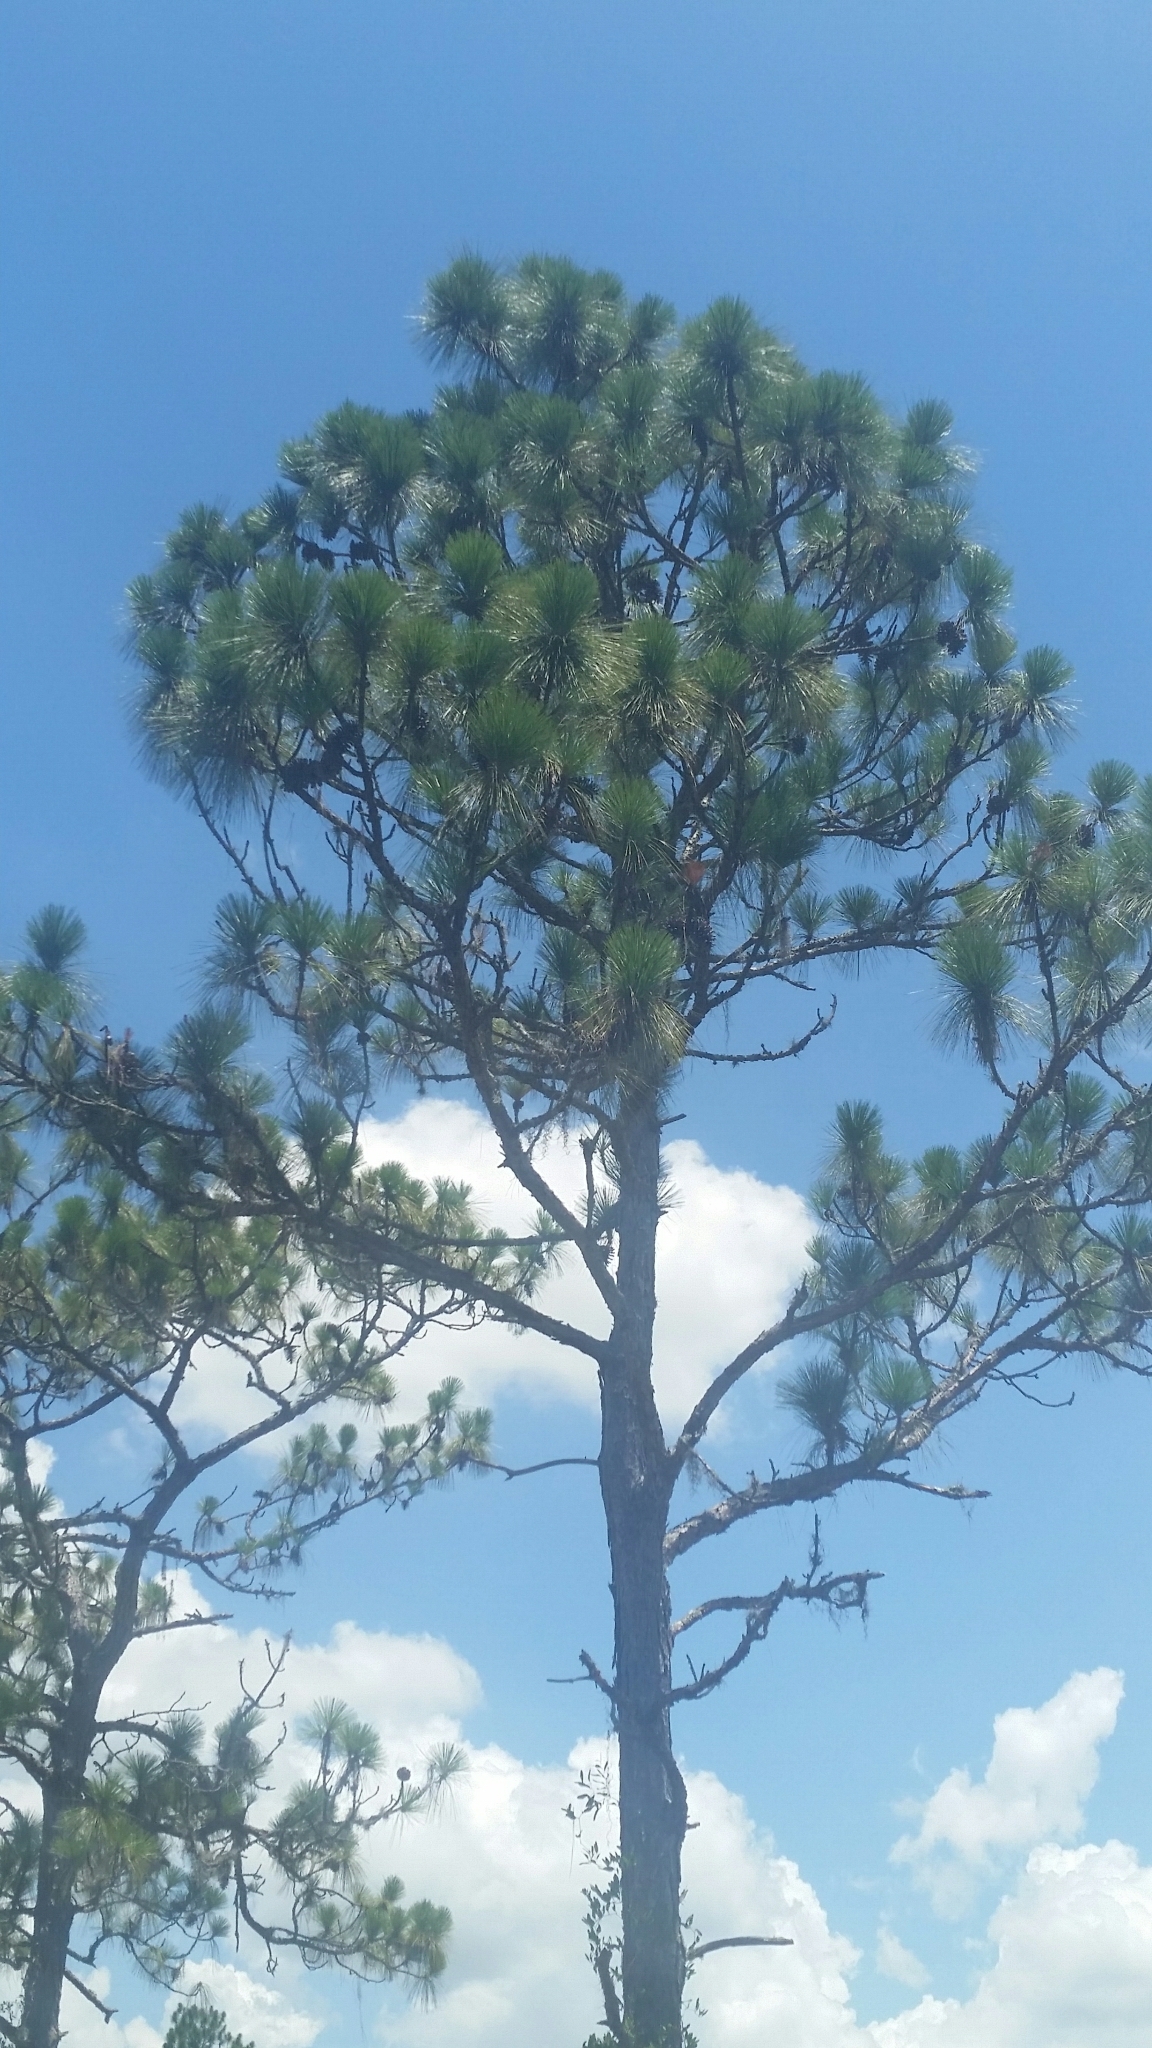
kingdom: Plantae
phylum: Tracheophyta
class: Pinopsida
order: Pinales
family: Pinaceae
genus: Pinus
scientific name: Pinus palustris
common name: Longleaf pine
